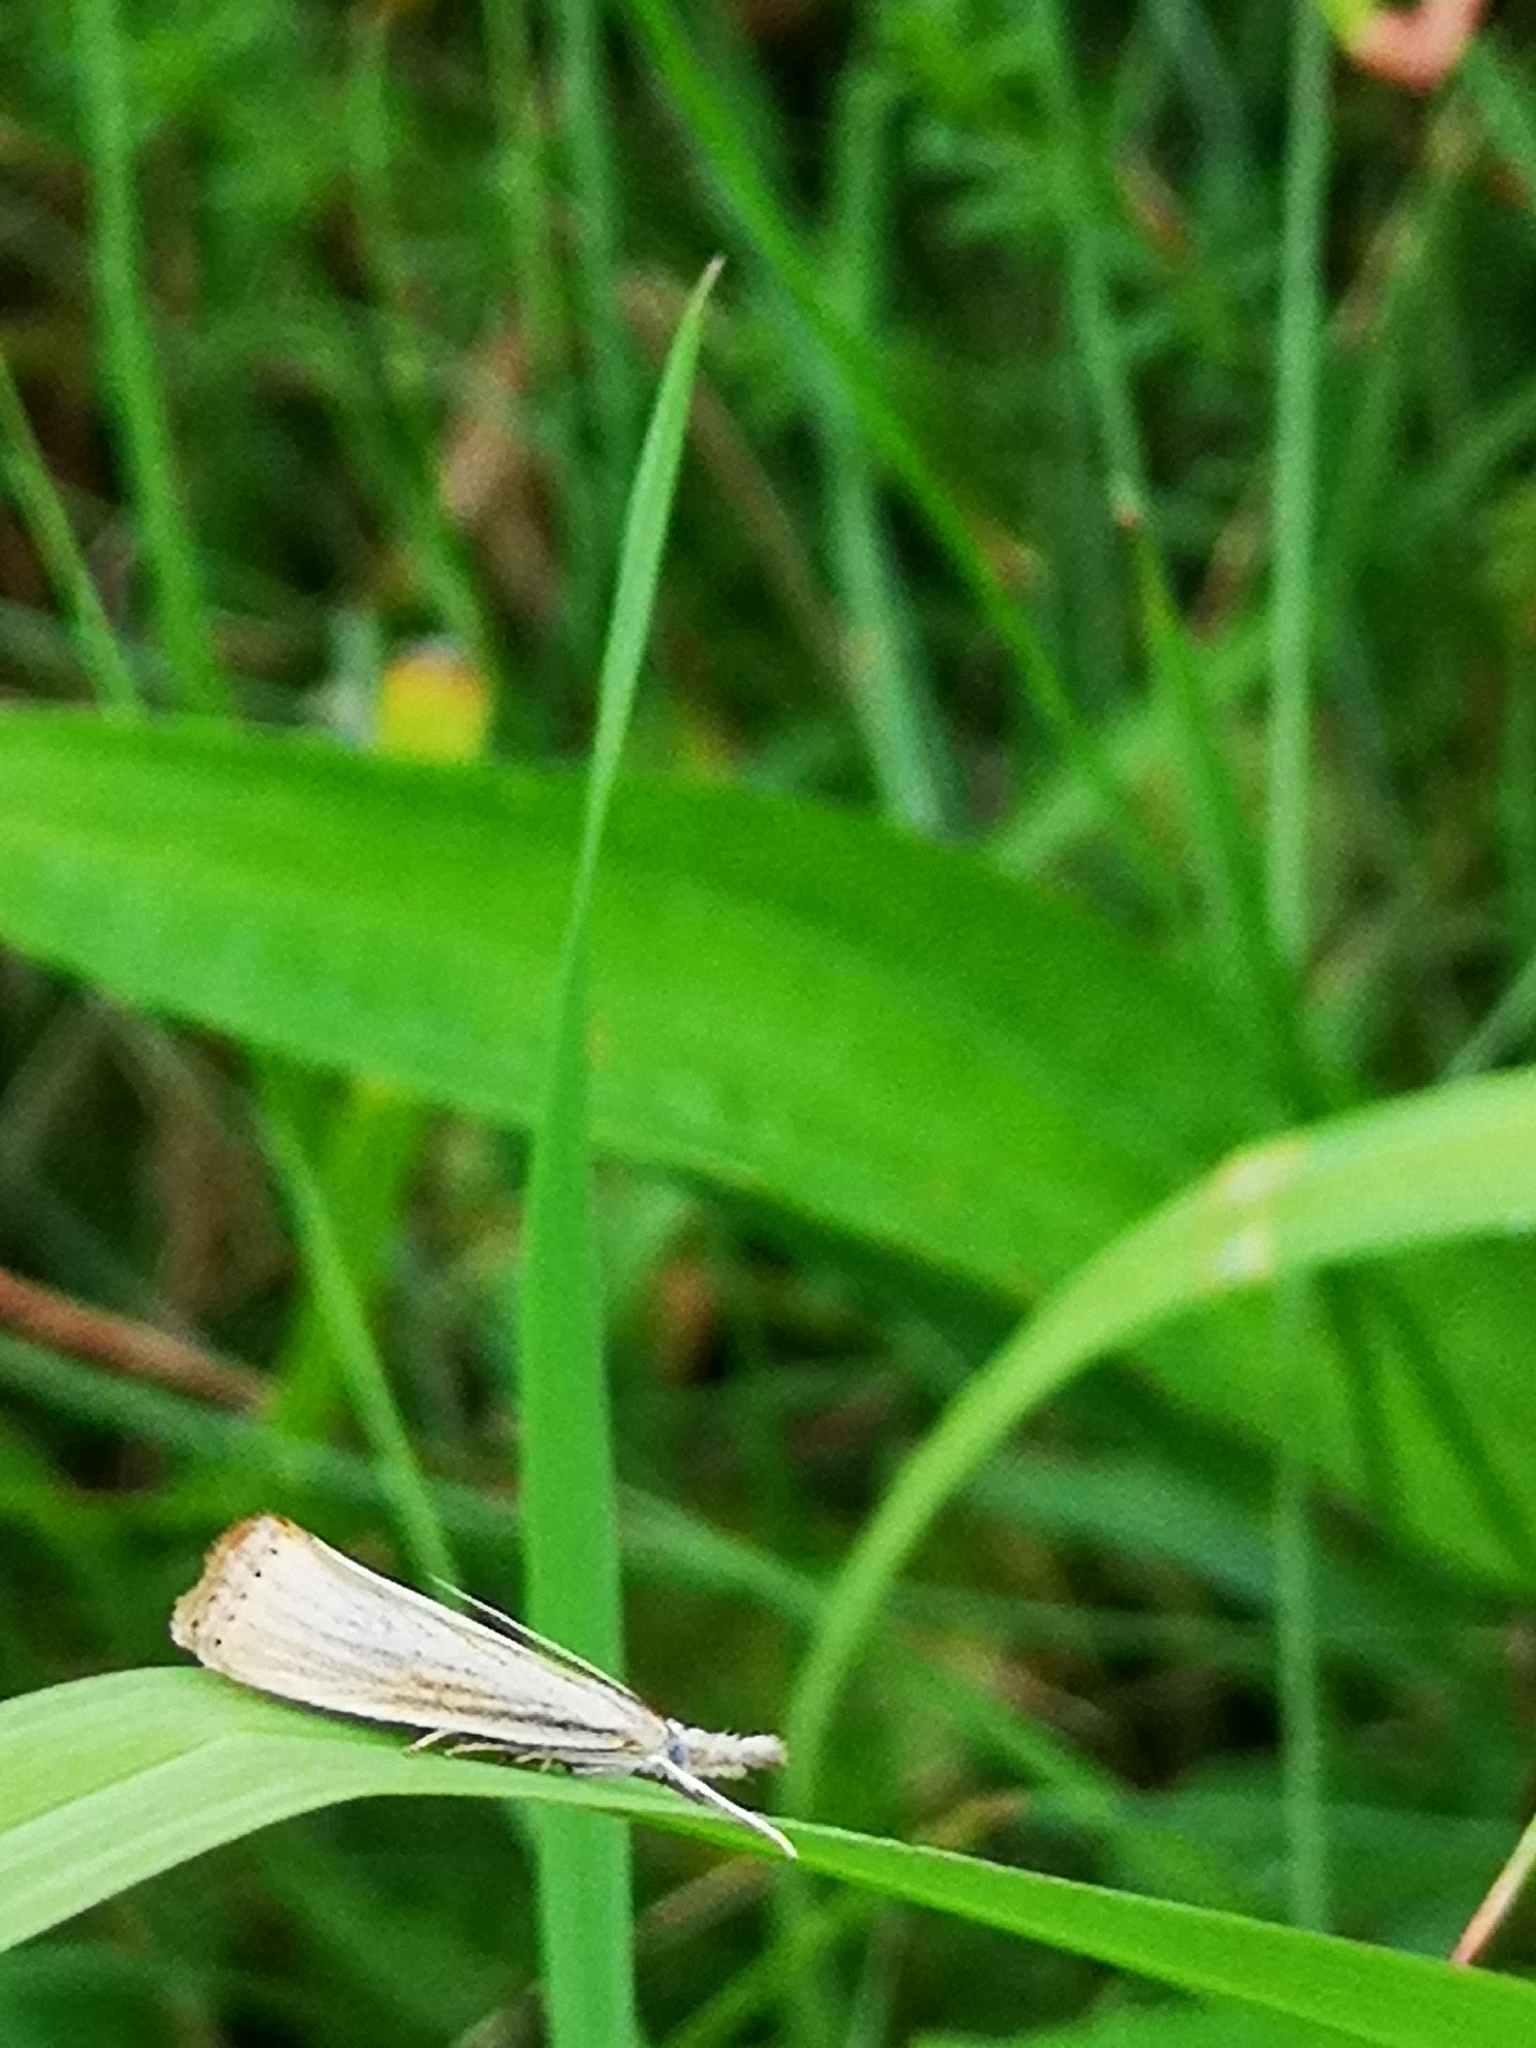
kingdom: Animalia
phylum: Arthropoda
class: Insecta
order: Lepidoptera
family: Crambidae
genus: Agriphila
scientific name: Agriphila straminella
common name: Straw grass-veneer
